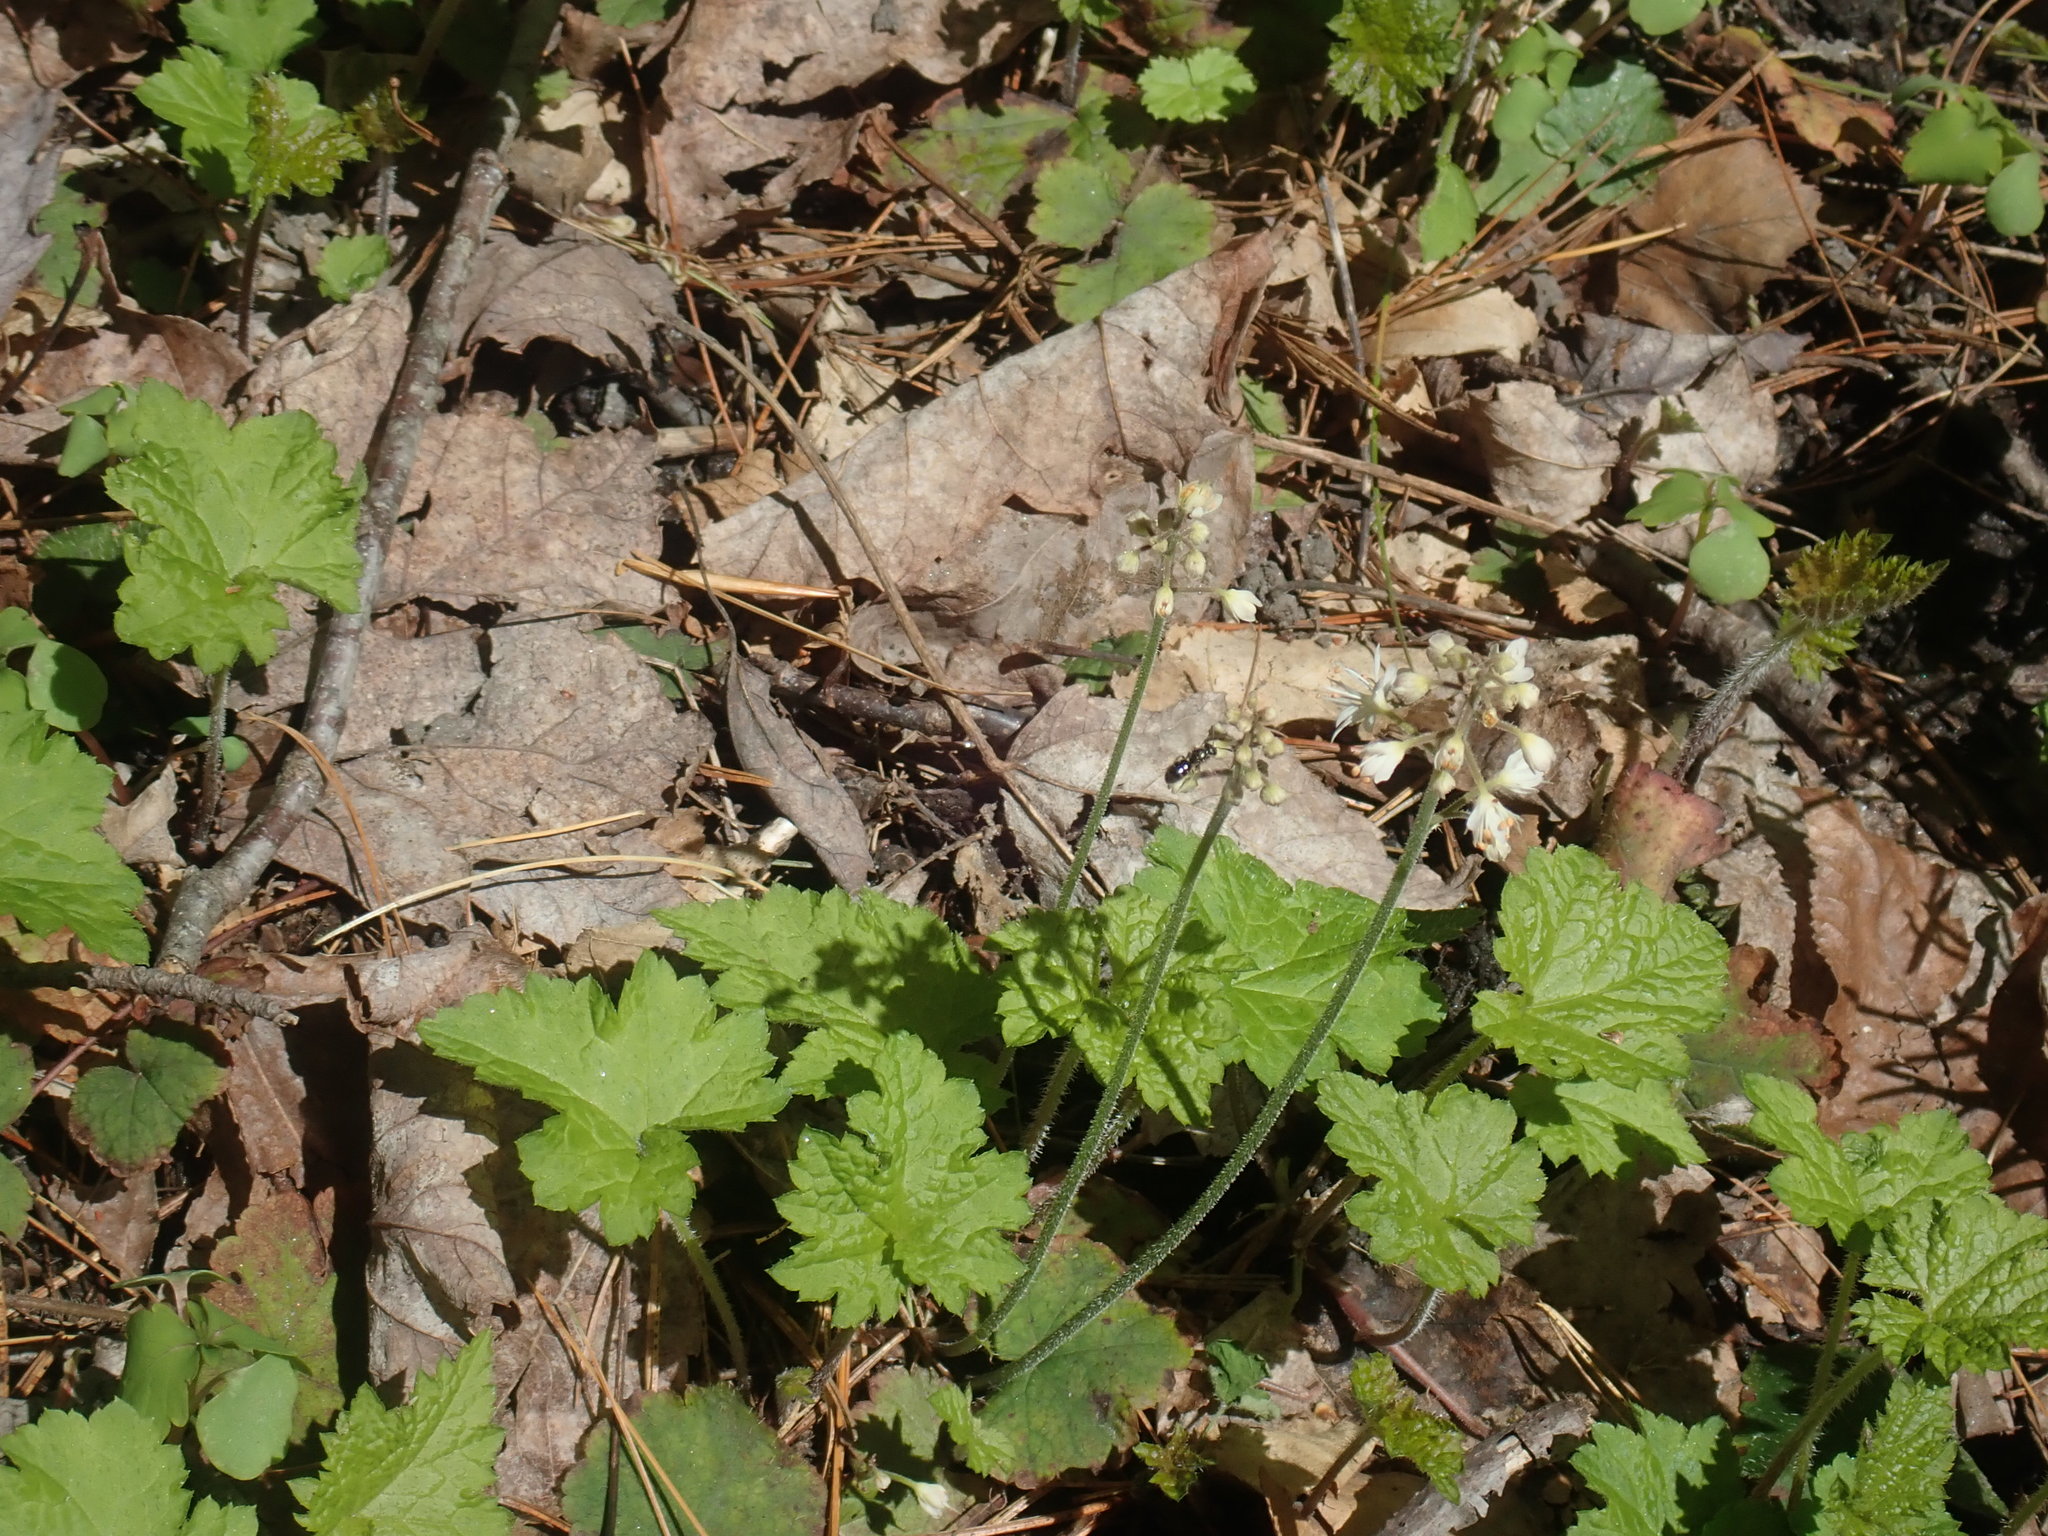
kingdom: Plantae
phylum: Tracheophyta
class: Magnoliopsida
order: Saxifragales
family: Saxifragaceae
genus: Tiarella
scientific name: Tiarella stolonifera
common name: Stoloniferous foamflower
